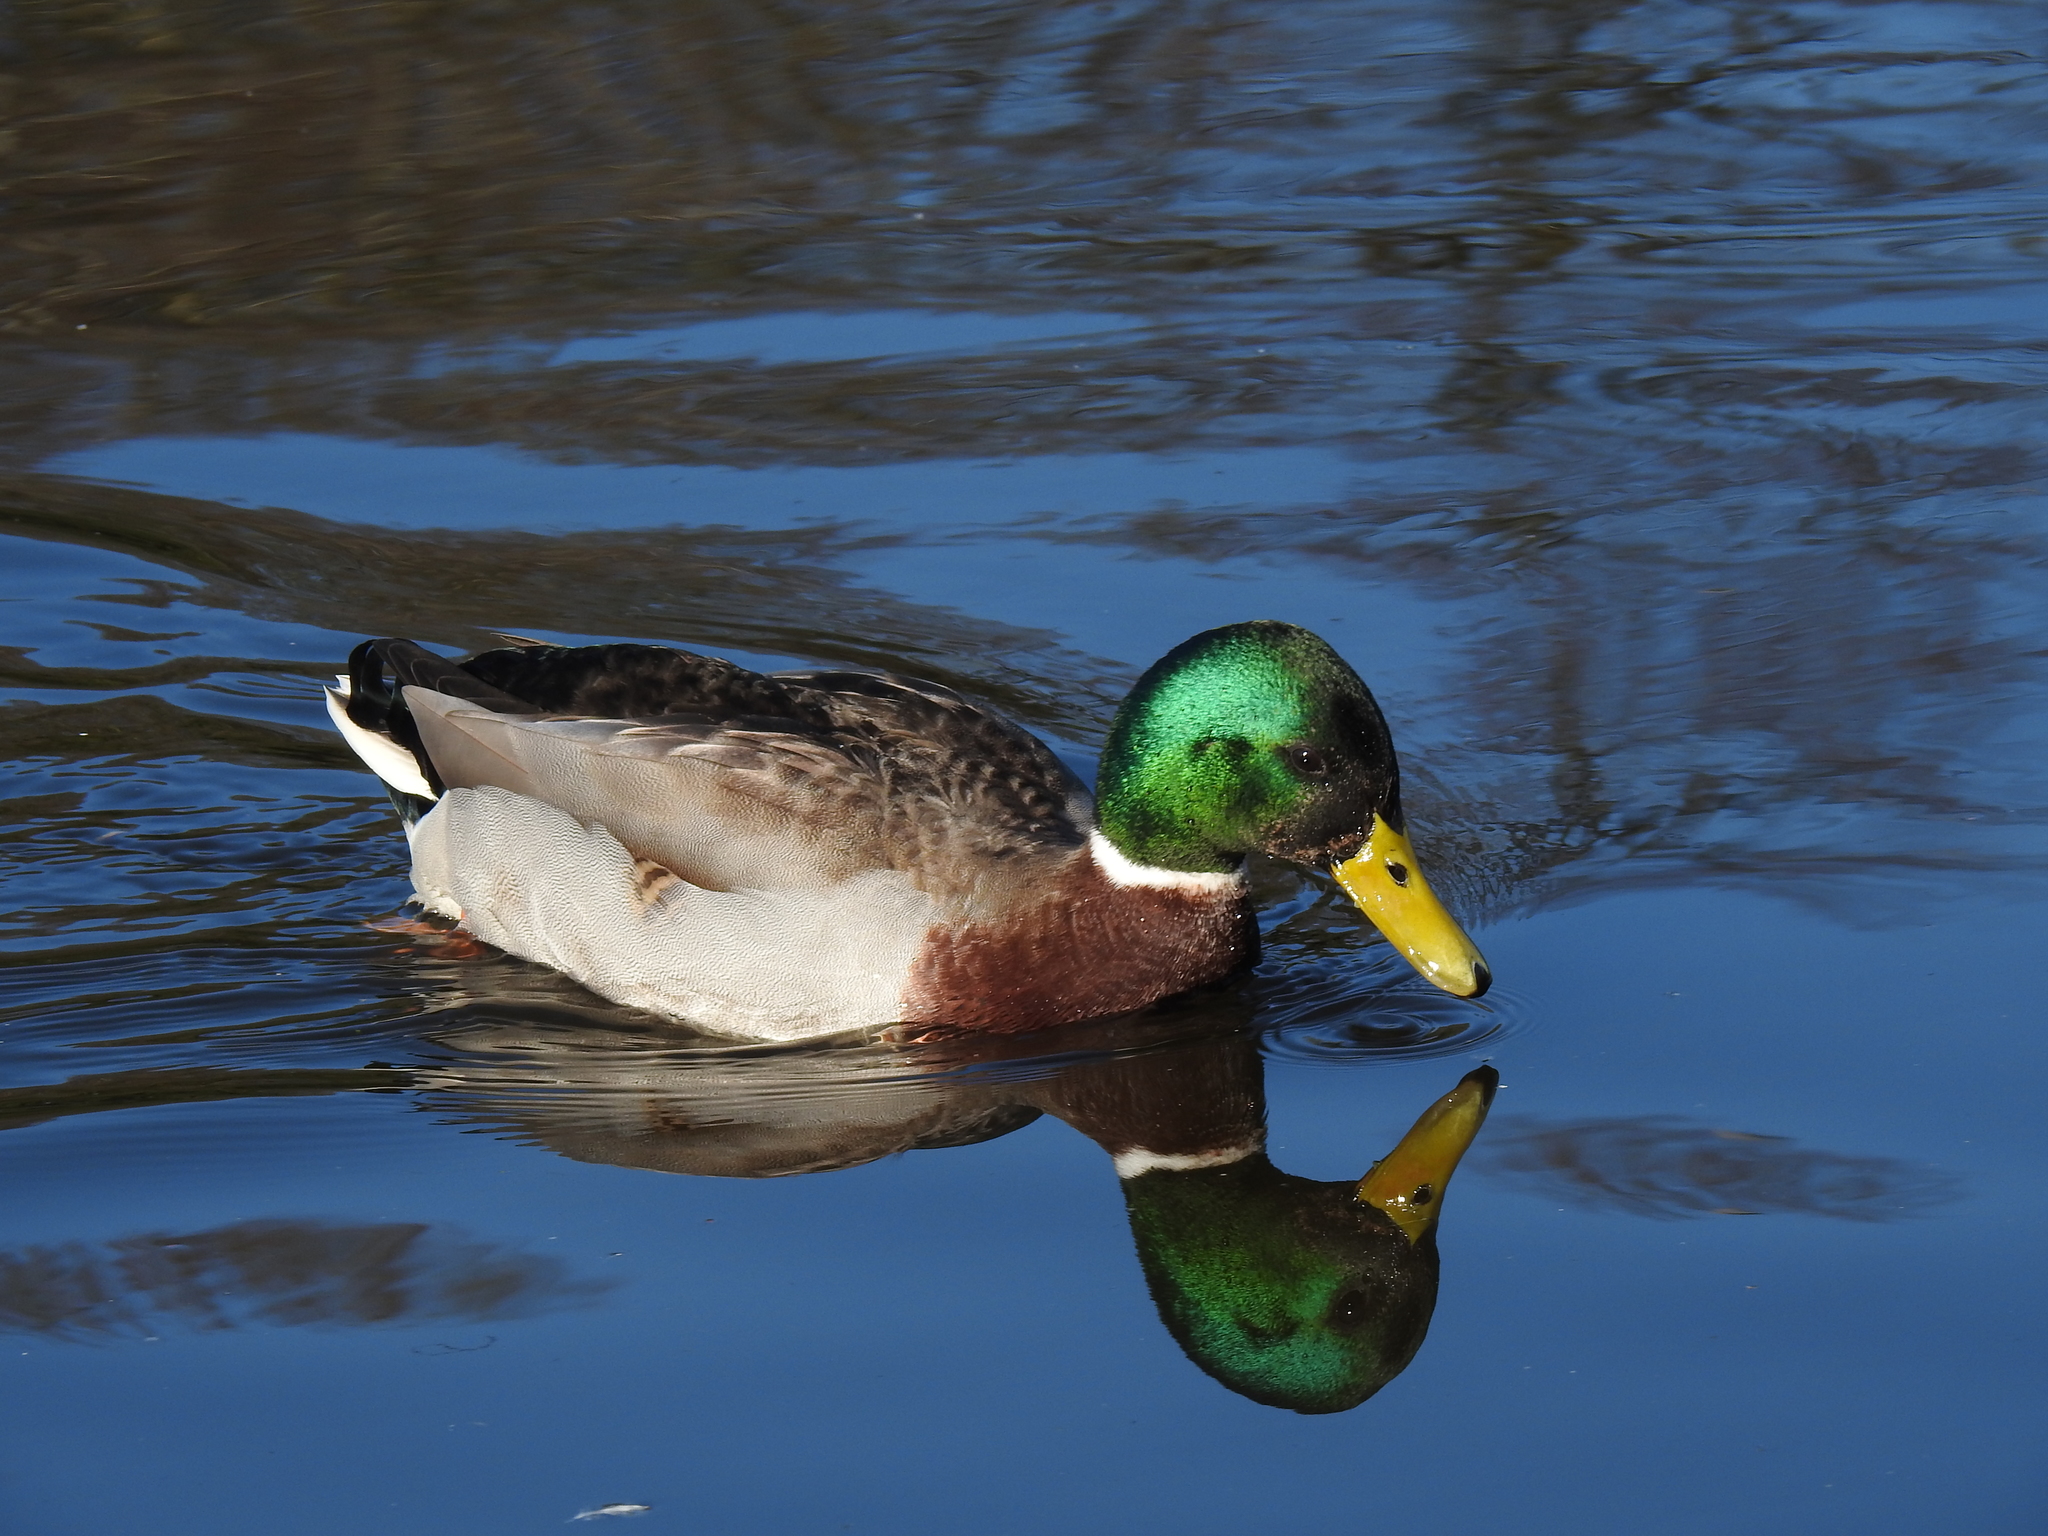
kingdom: Animalia
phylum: Chordata
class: Aves
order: Anseriformes
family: Anatidae
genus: Anas
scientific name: Anas platyrhynchos
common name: Mallard
